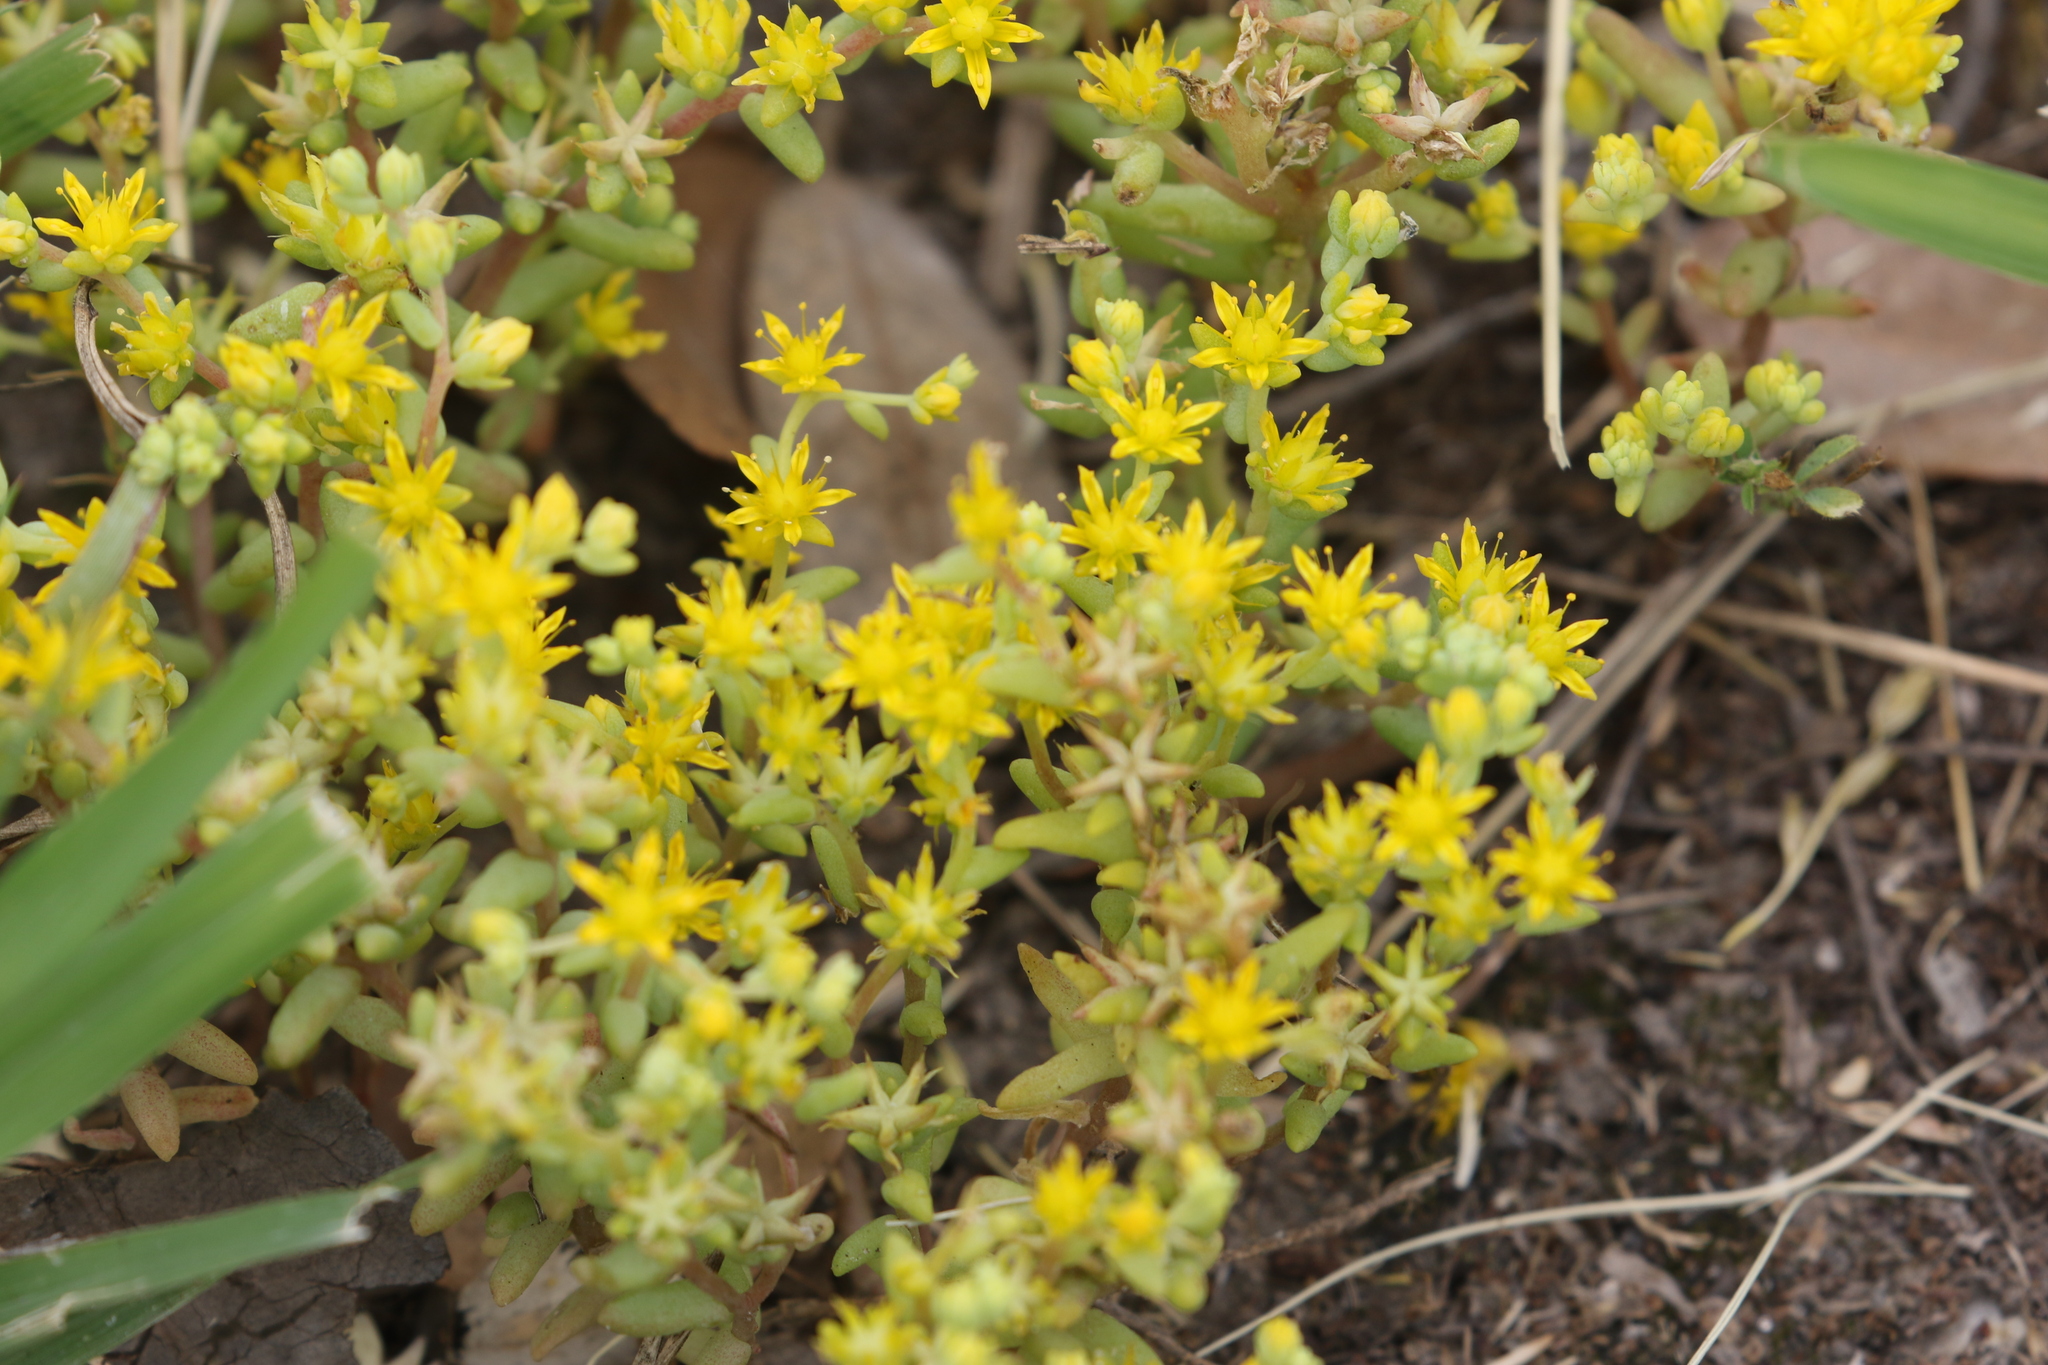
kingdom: Plantae
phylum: Tracheophyta
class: Magnoliopsida
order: Saxifragales
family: Crassulaceae
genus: Sedum
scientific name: Sedum nuttallii
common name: Yellow stonecrop
